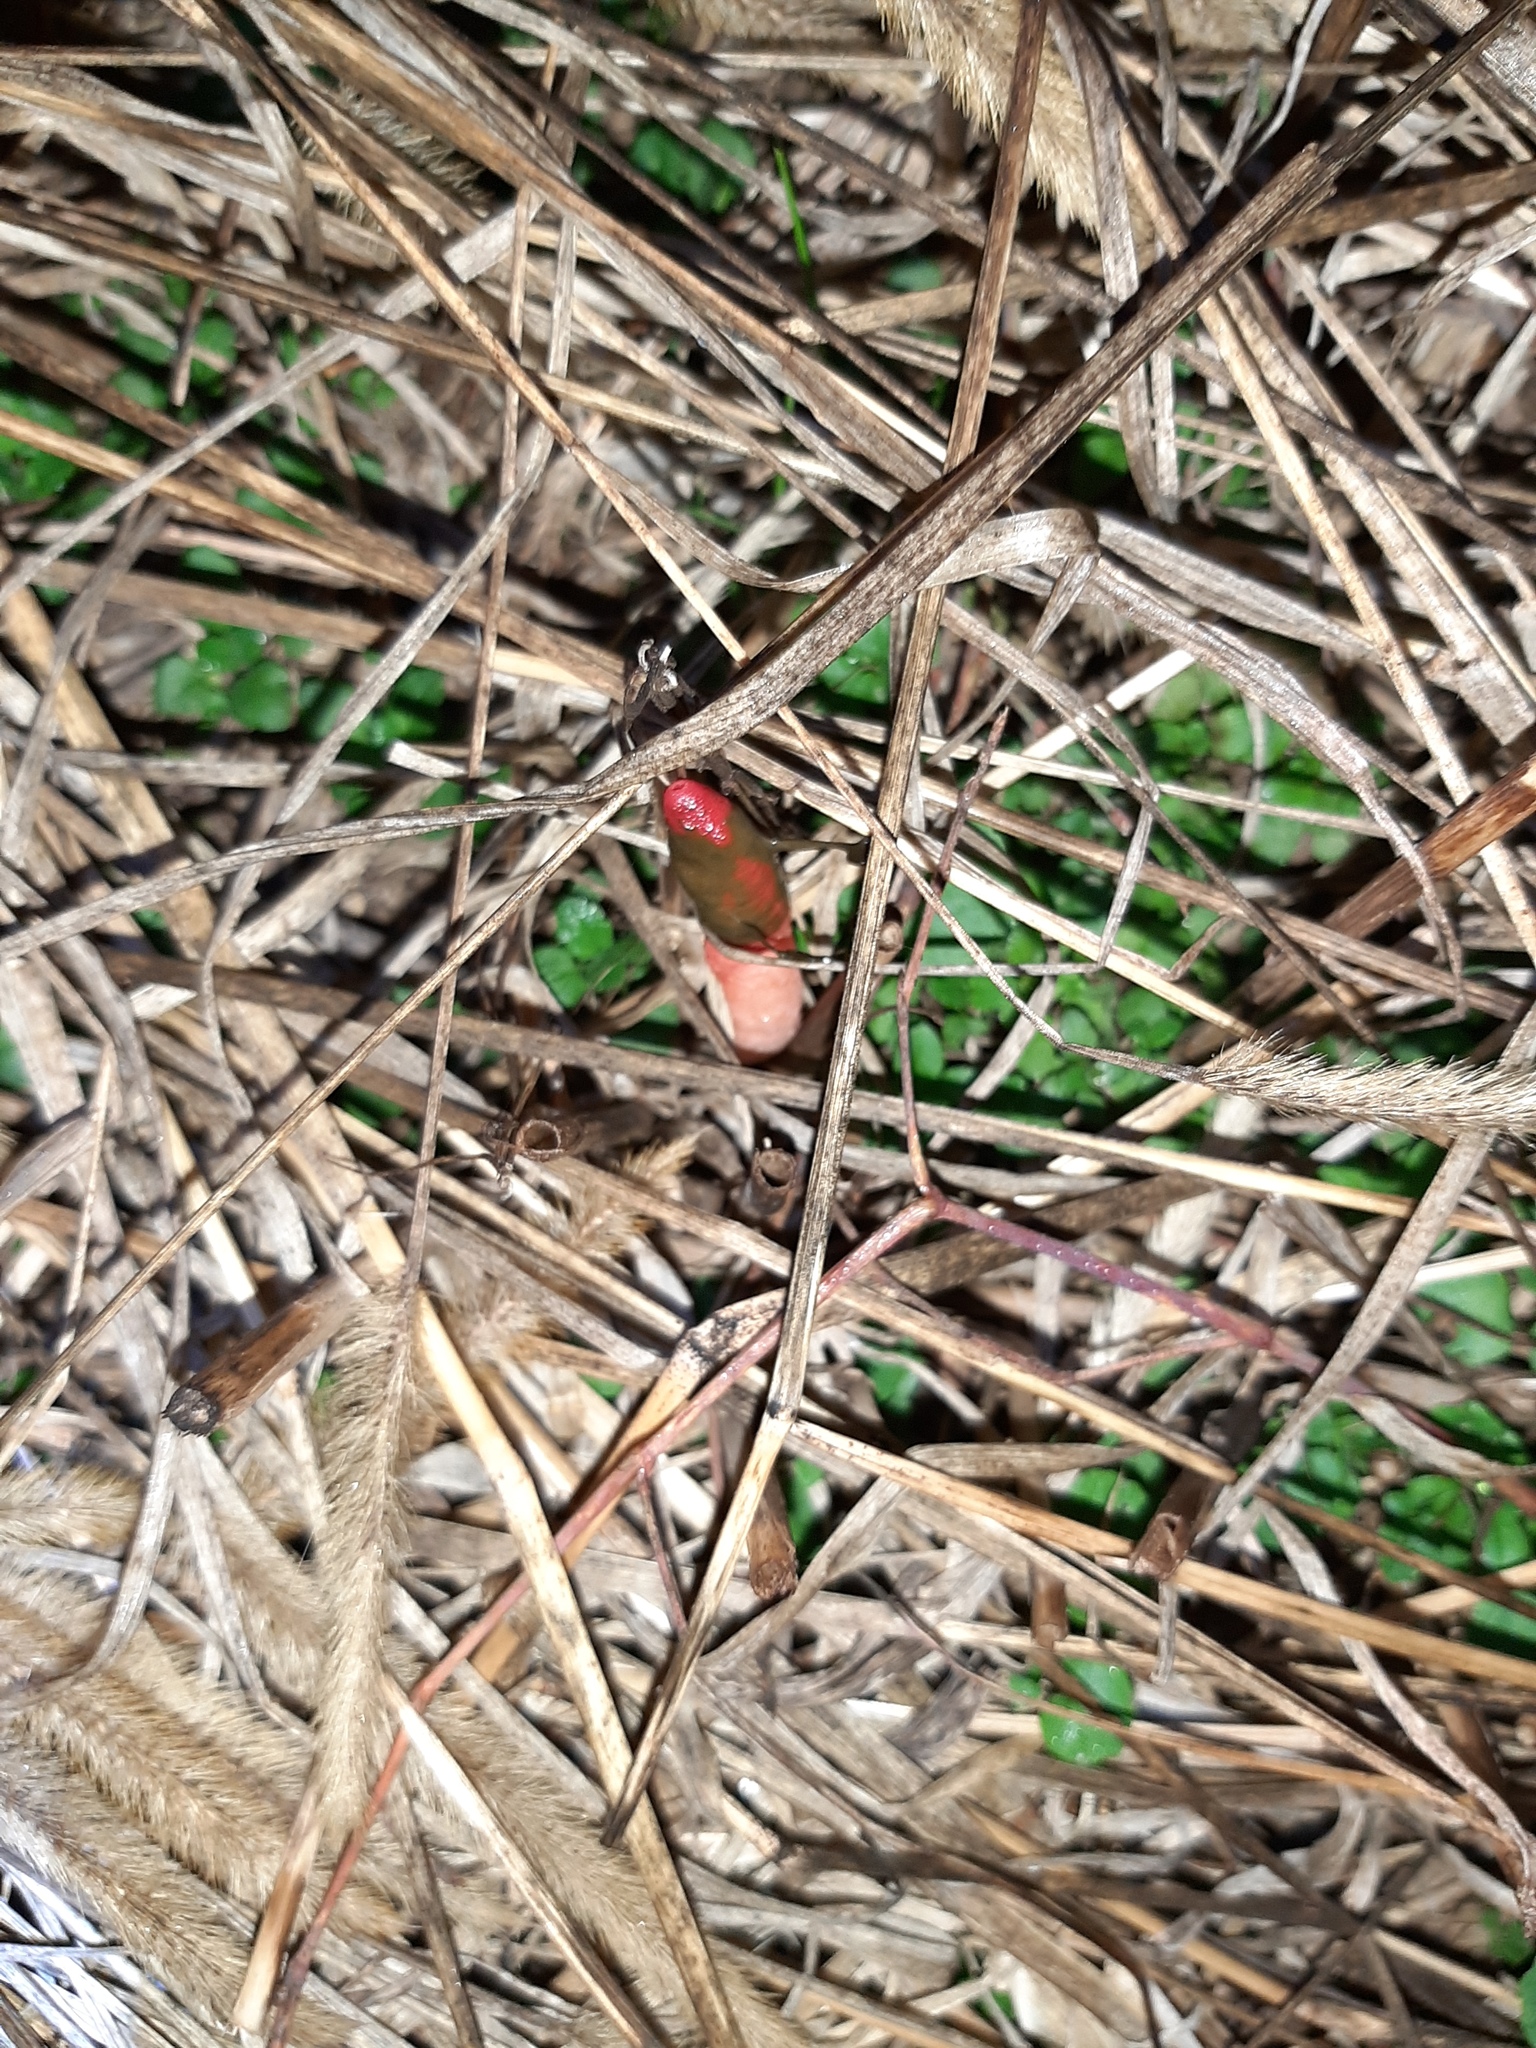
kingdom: Fungi
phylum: Basidiomycota
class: Agaricomycetes
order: Phallales
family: Phallaceae
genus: Mutinus
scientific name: Mutinus elegans
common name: Devil's dipstick
